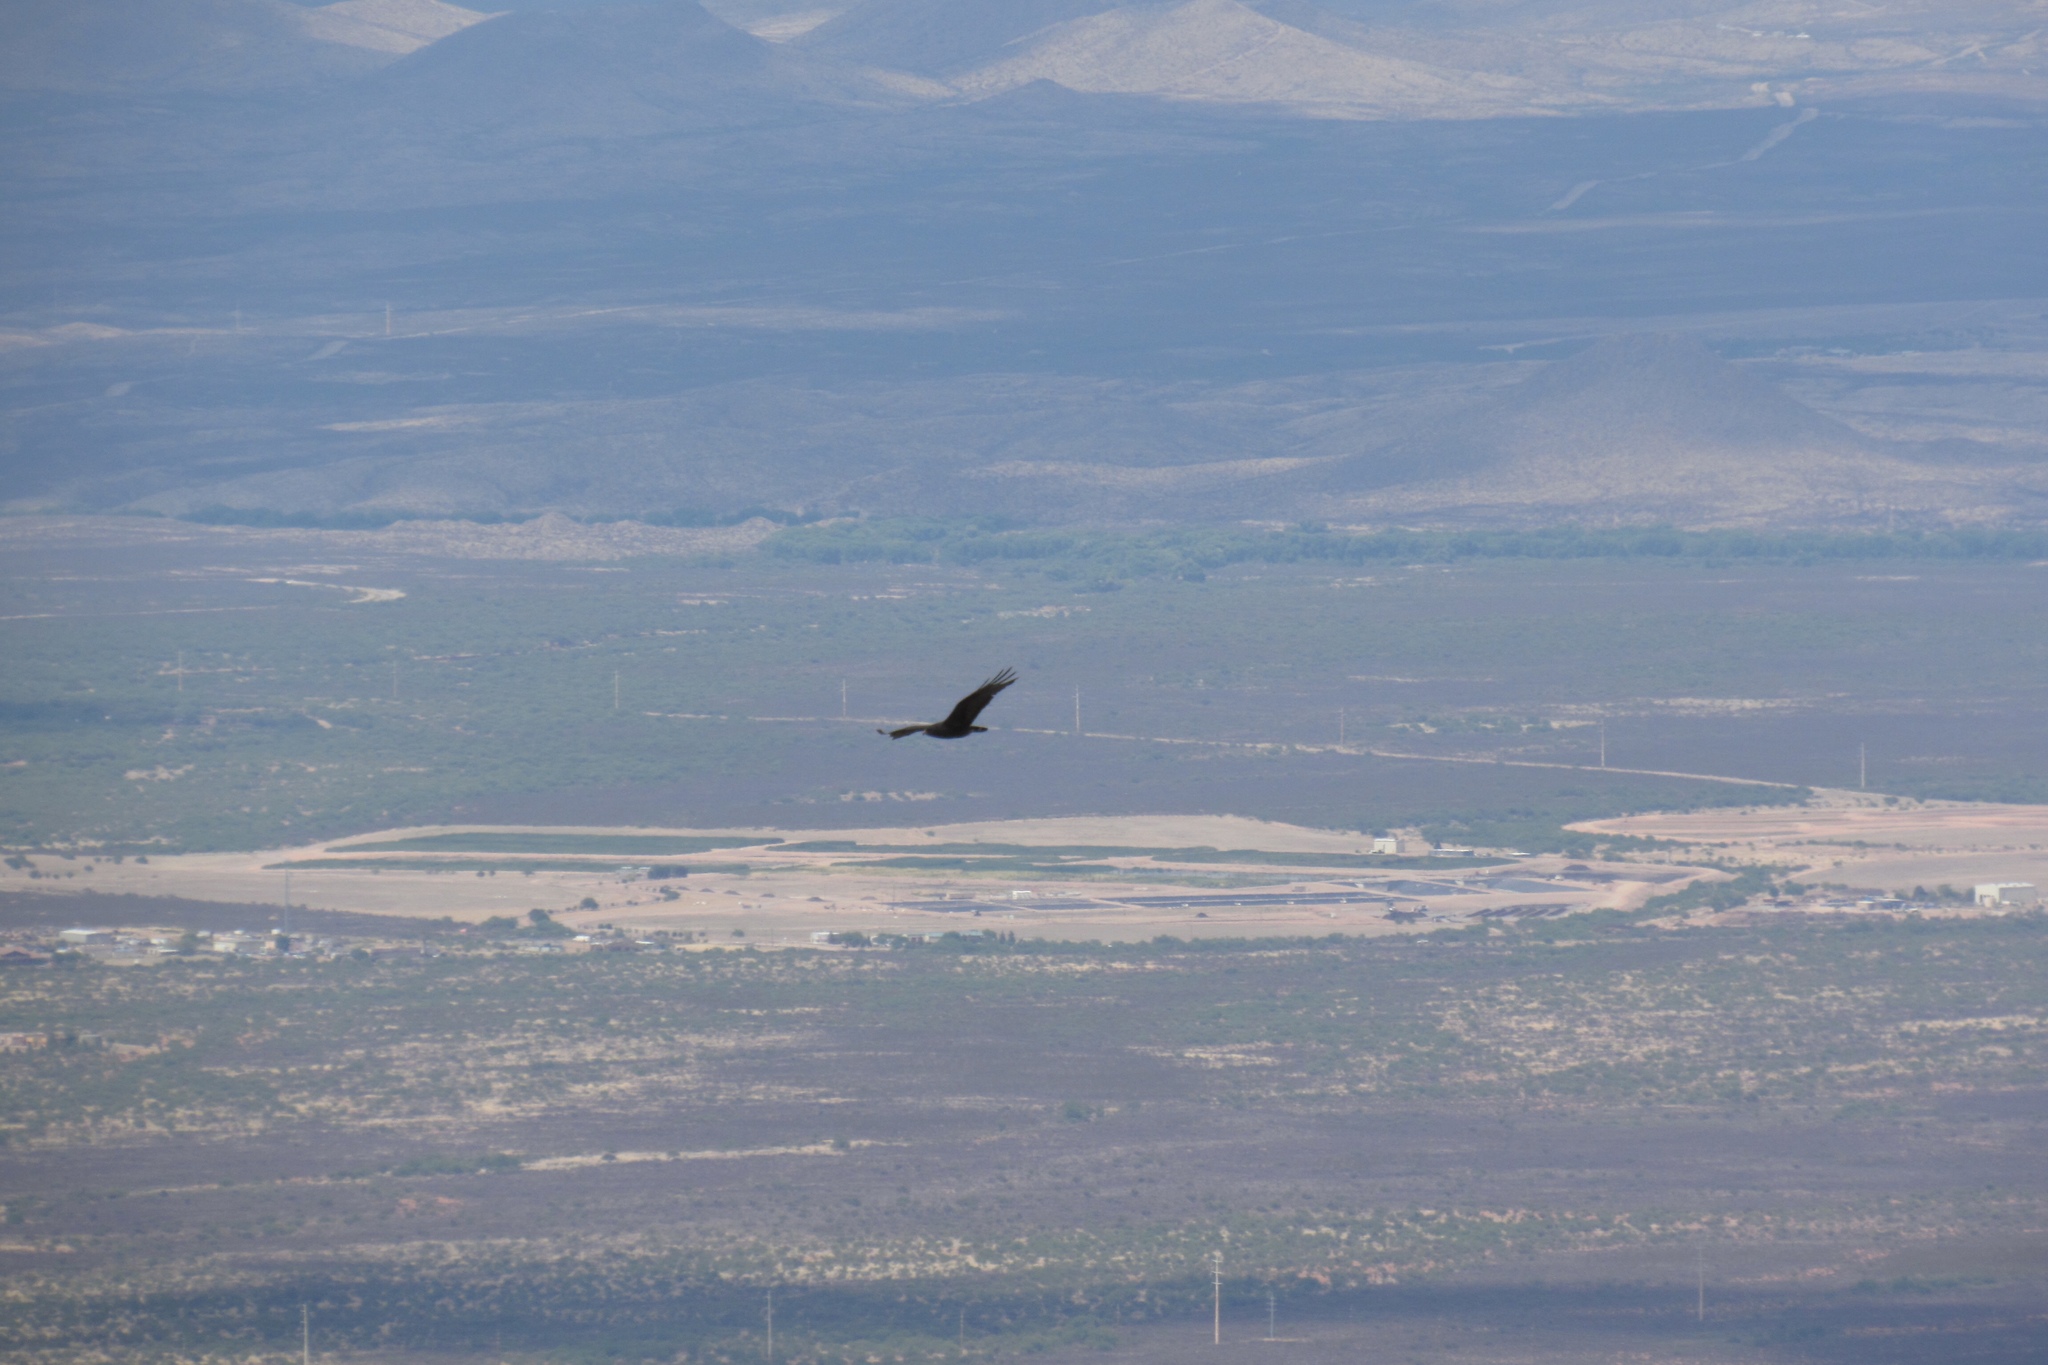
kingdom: Animalia
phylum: Chordata
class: Aves
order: Accipitriformes
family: Accipitridae
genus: Buteo
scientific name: Buteo albonotatus
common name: Zone-tailed hawk
